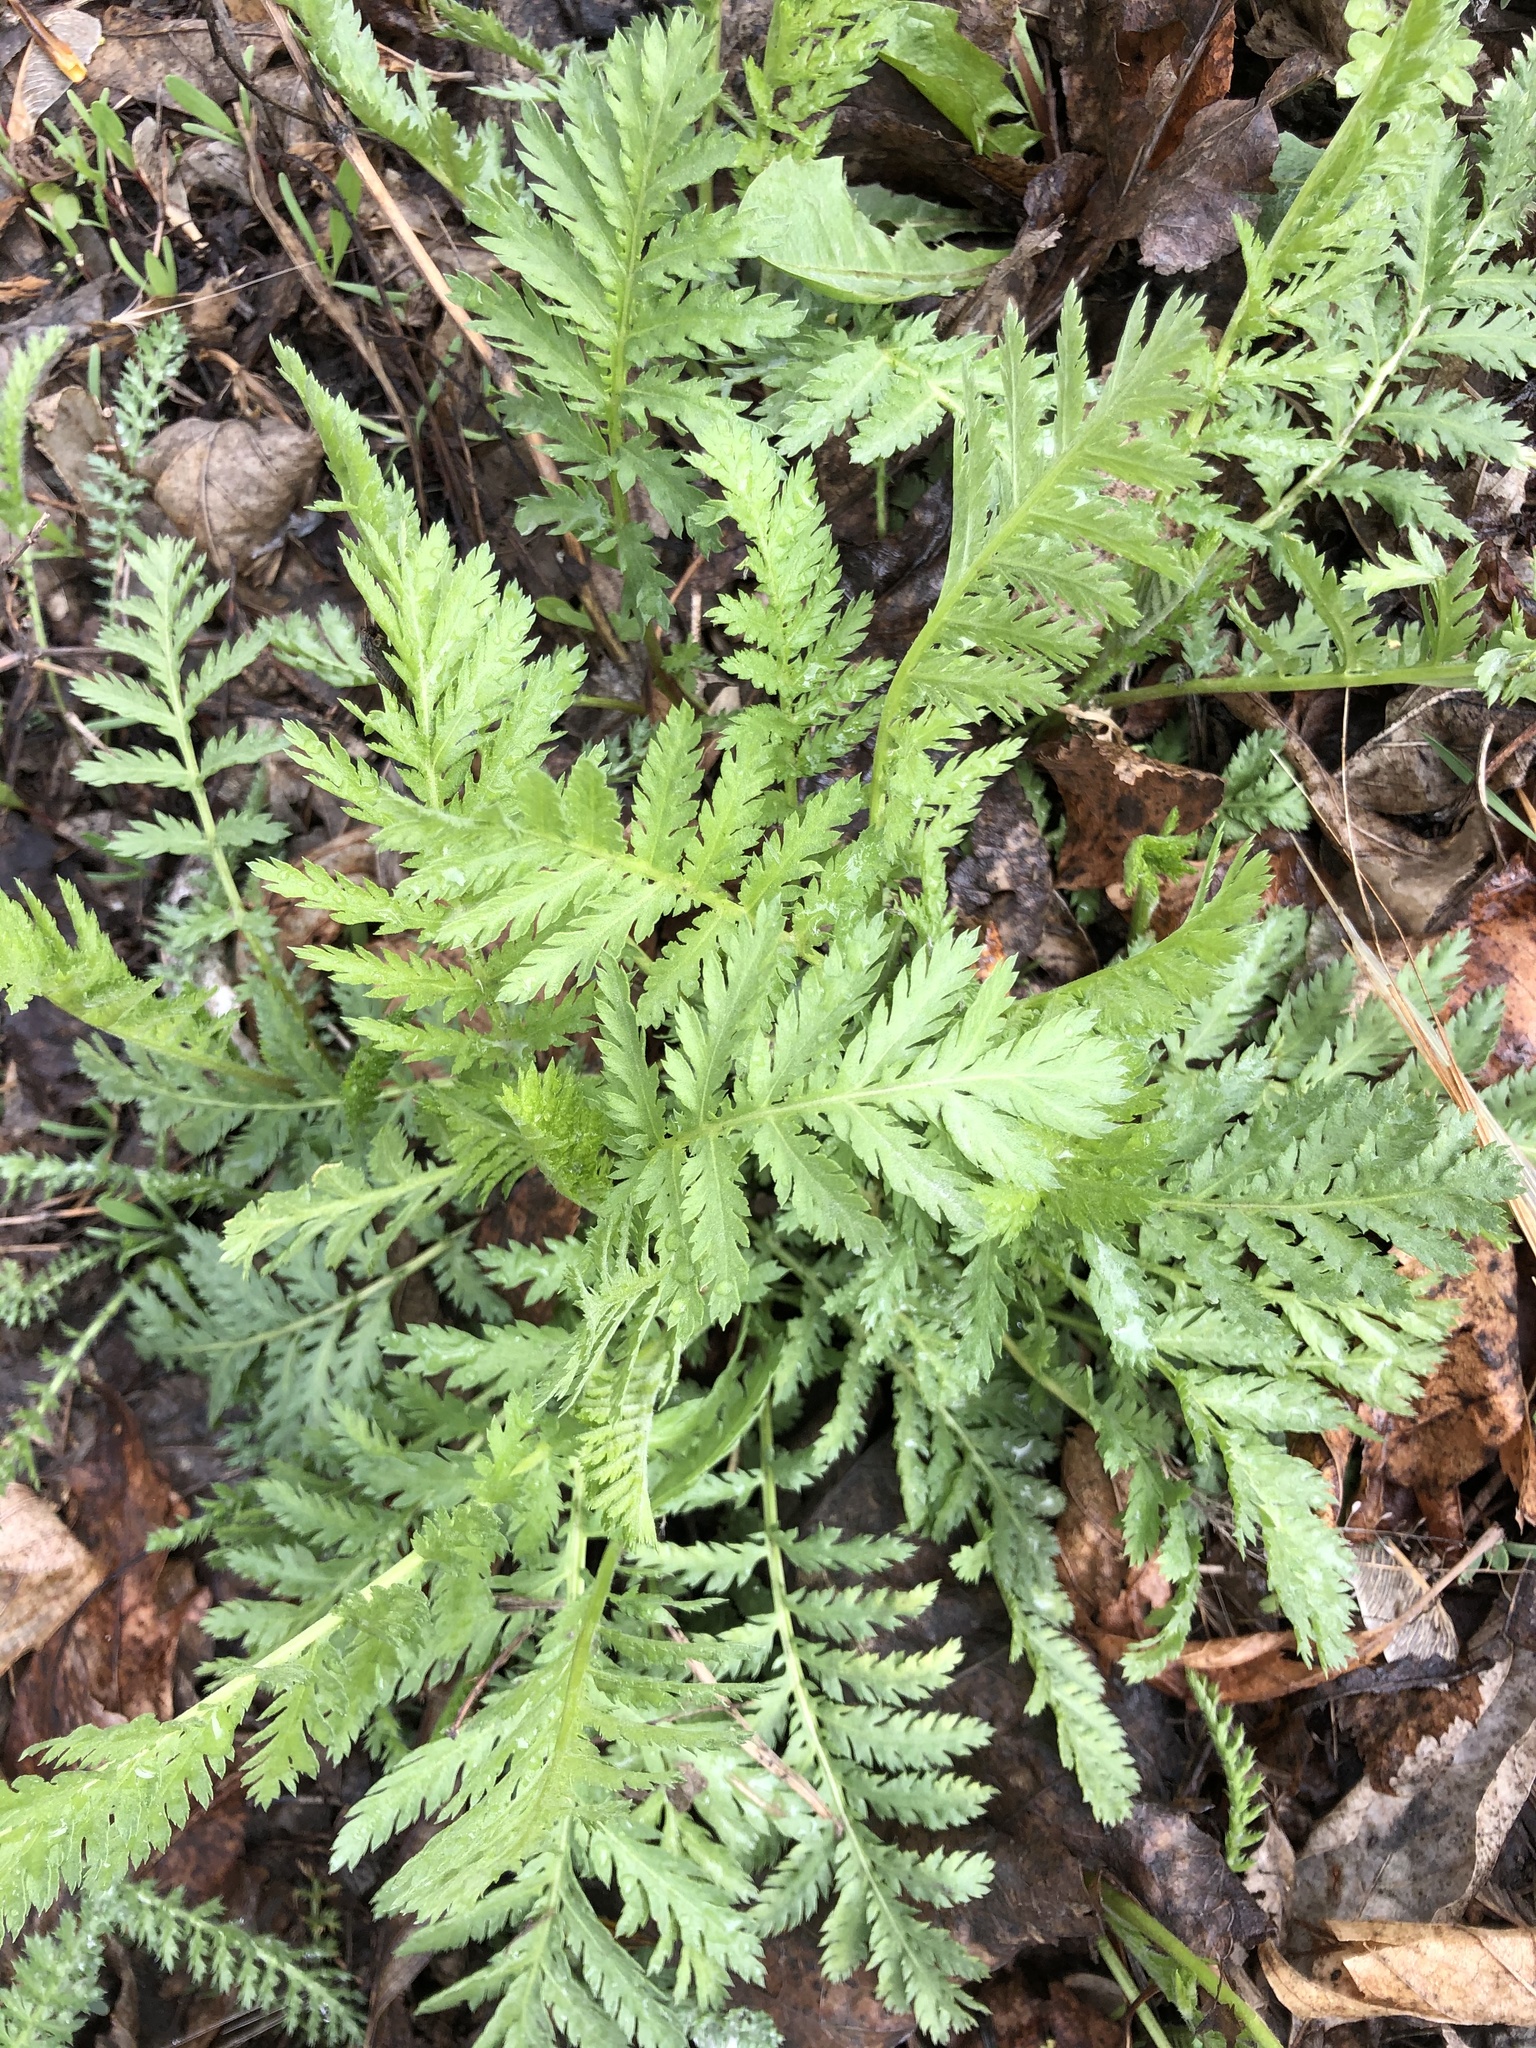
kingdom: Plantae
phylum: Tracheophyta
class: Magnoliopsida
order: Asterales
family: Asteraceae
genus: Tanacetum
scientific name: Tanacetum vulgare
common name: Common tansy
